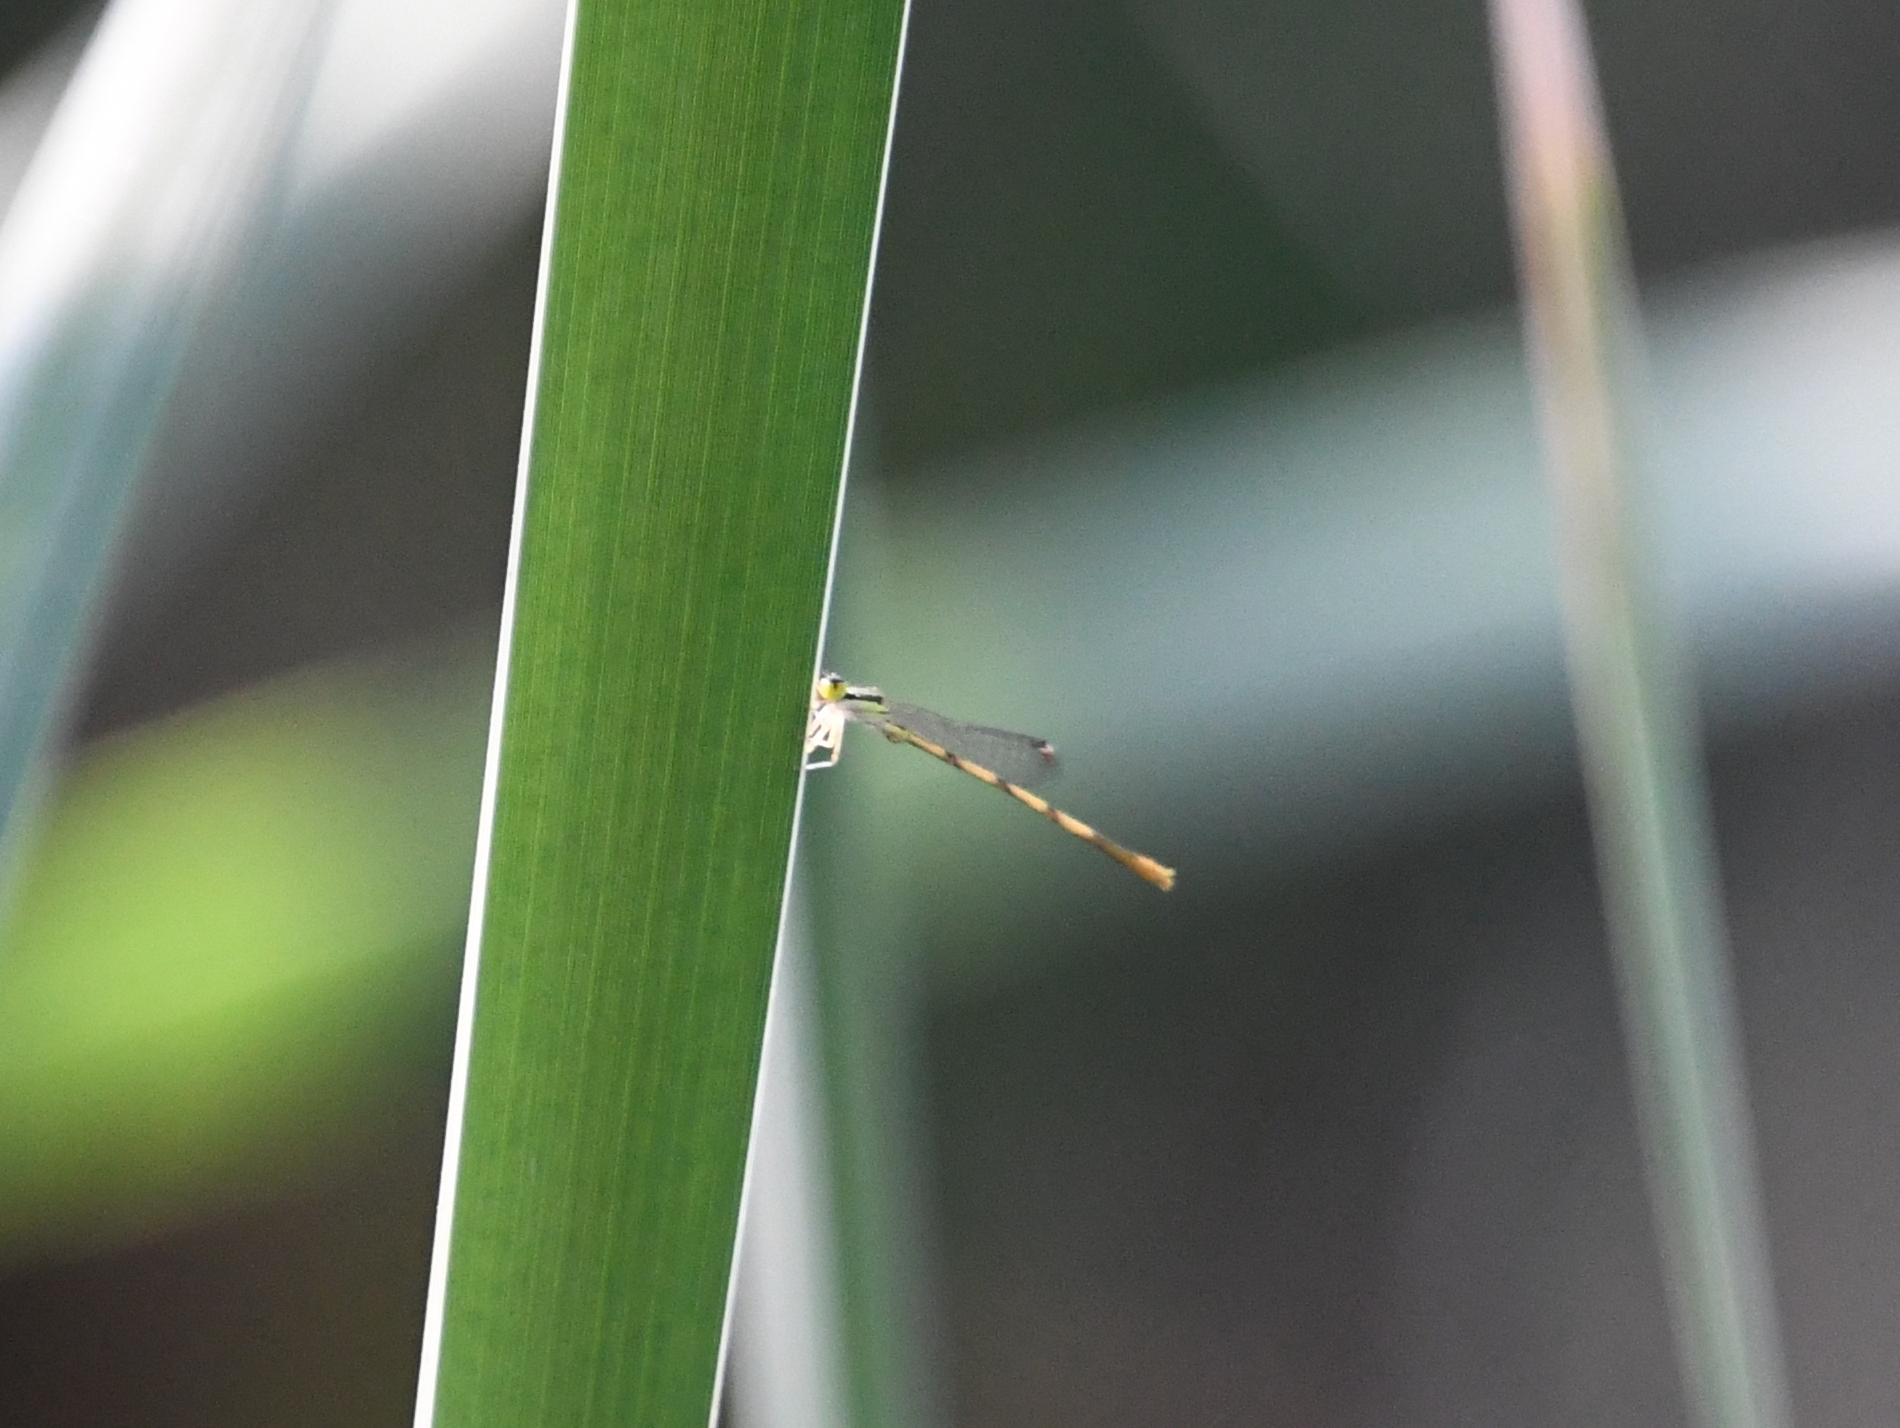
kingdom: Animalia
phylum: Arthropoda
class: Insecta
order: Odonata
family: Coenagrionidae
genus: Ischnura
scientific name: Ischnura hastata
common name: Citrine forktail
